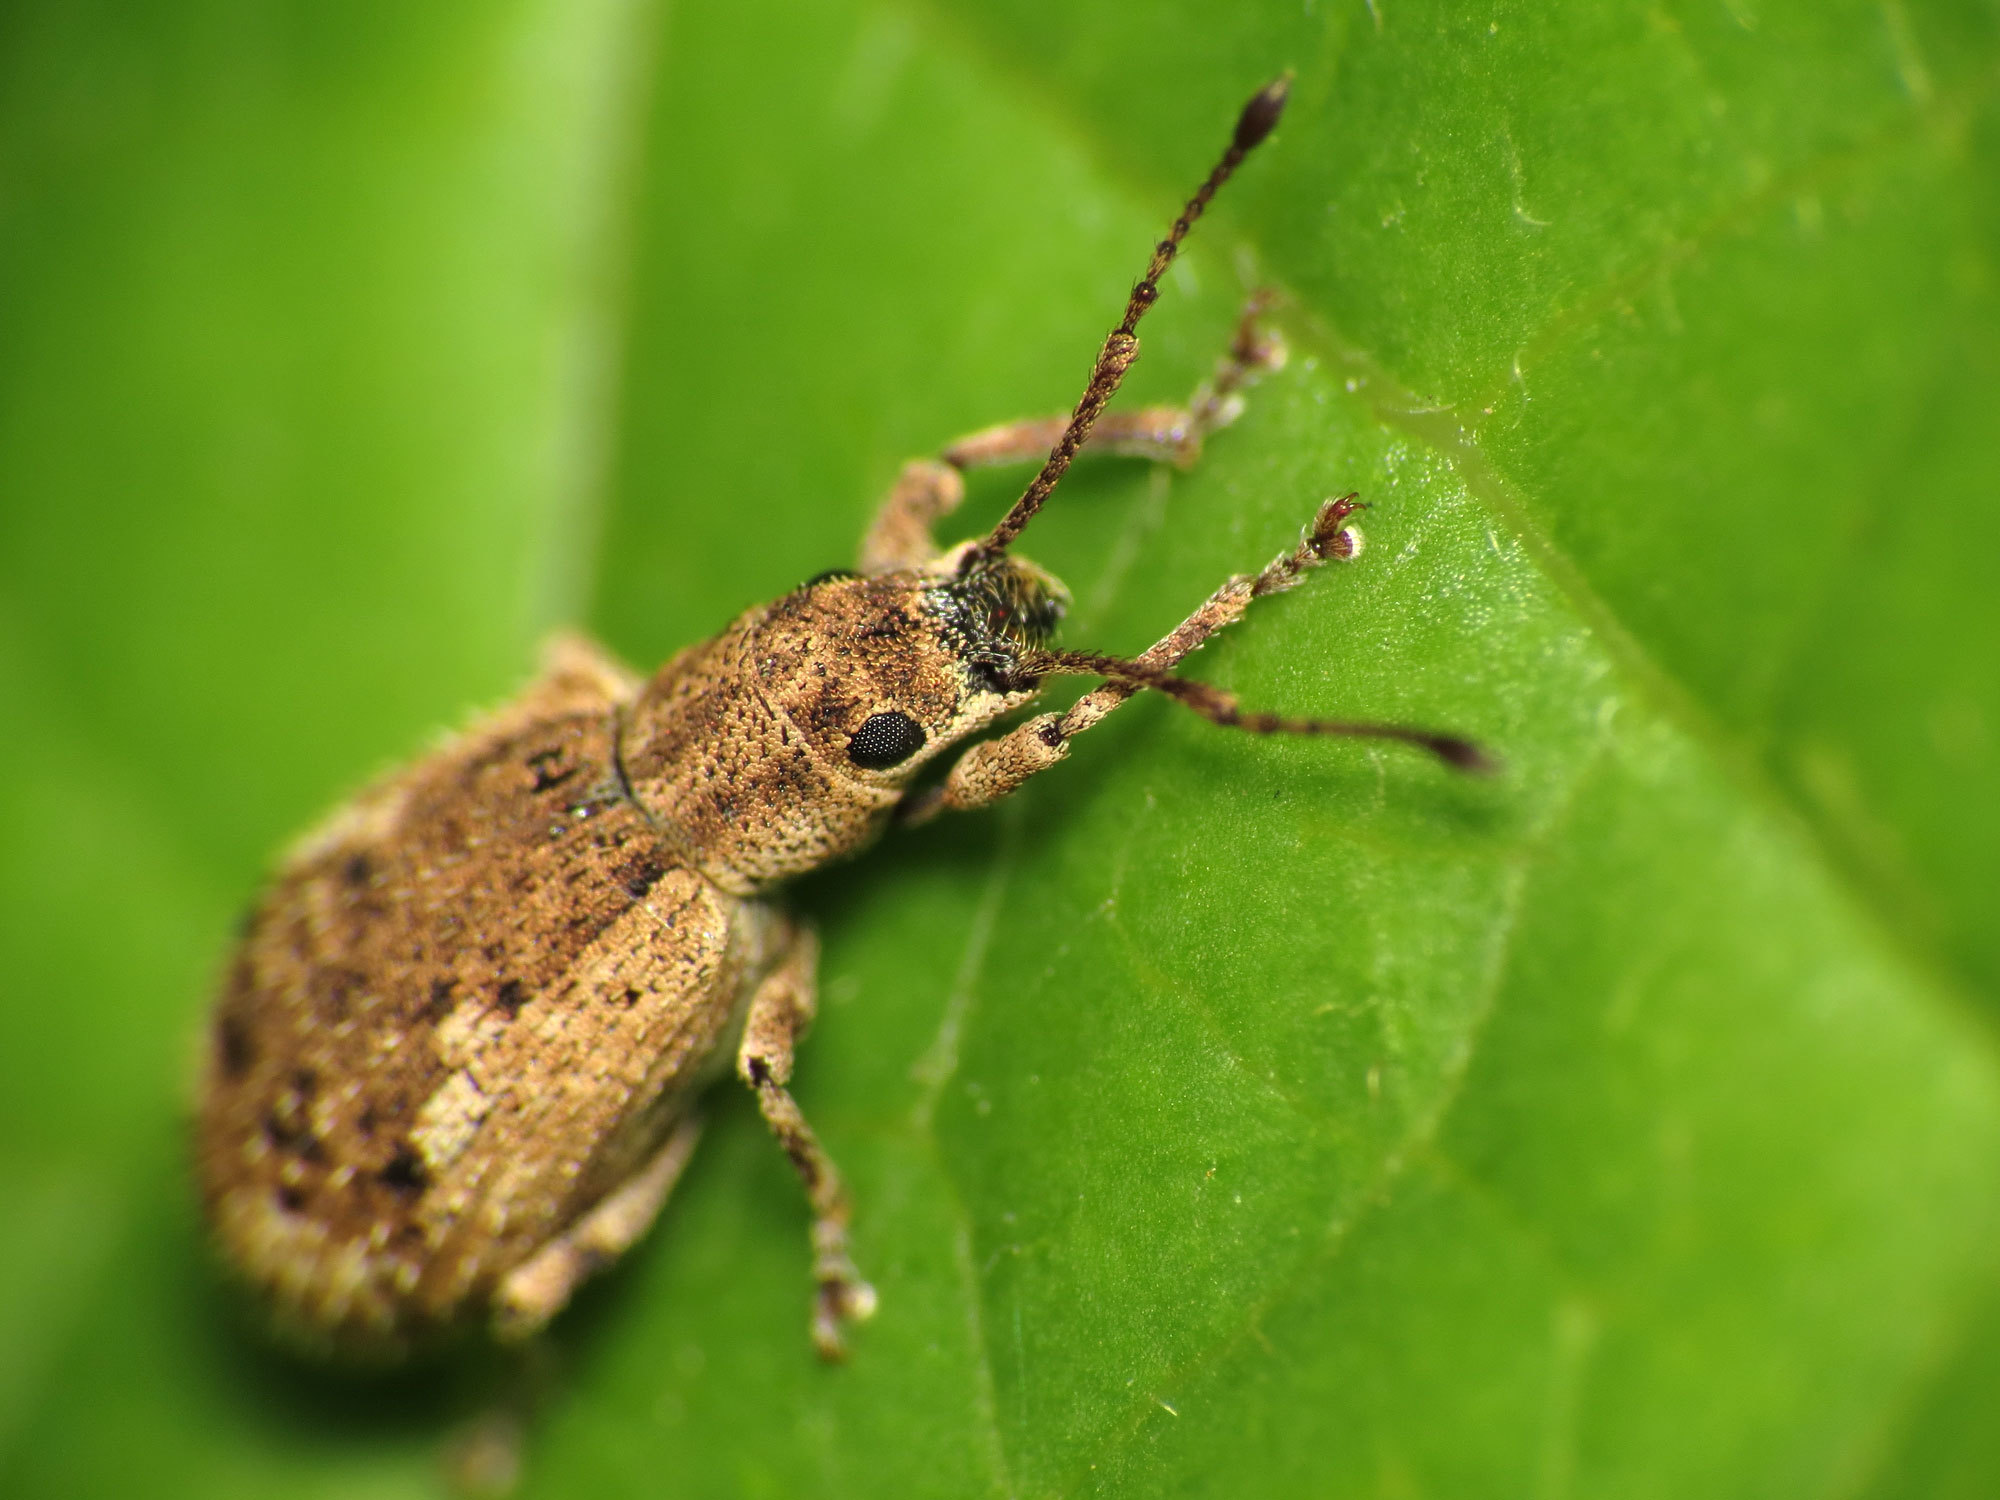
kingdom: Animalia
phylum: Arthropoda
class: Insecta
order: Coleoptera
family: Curculionidae
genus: Pseudoedophrys
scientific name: Pseudoedophrys hilleri
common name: Weevil
